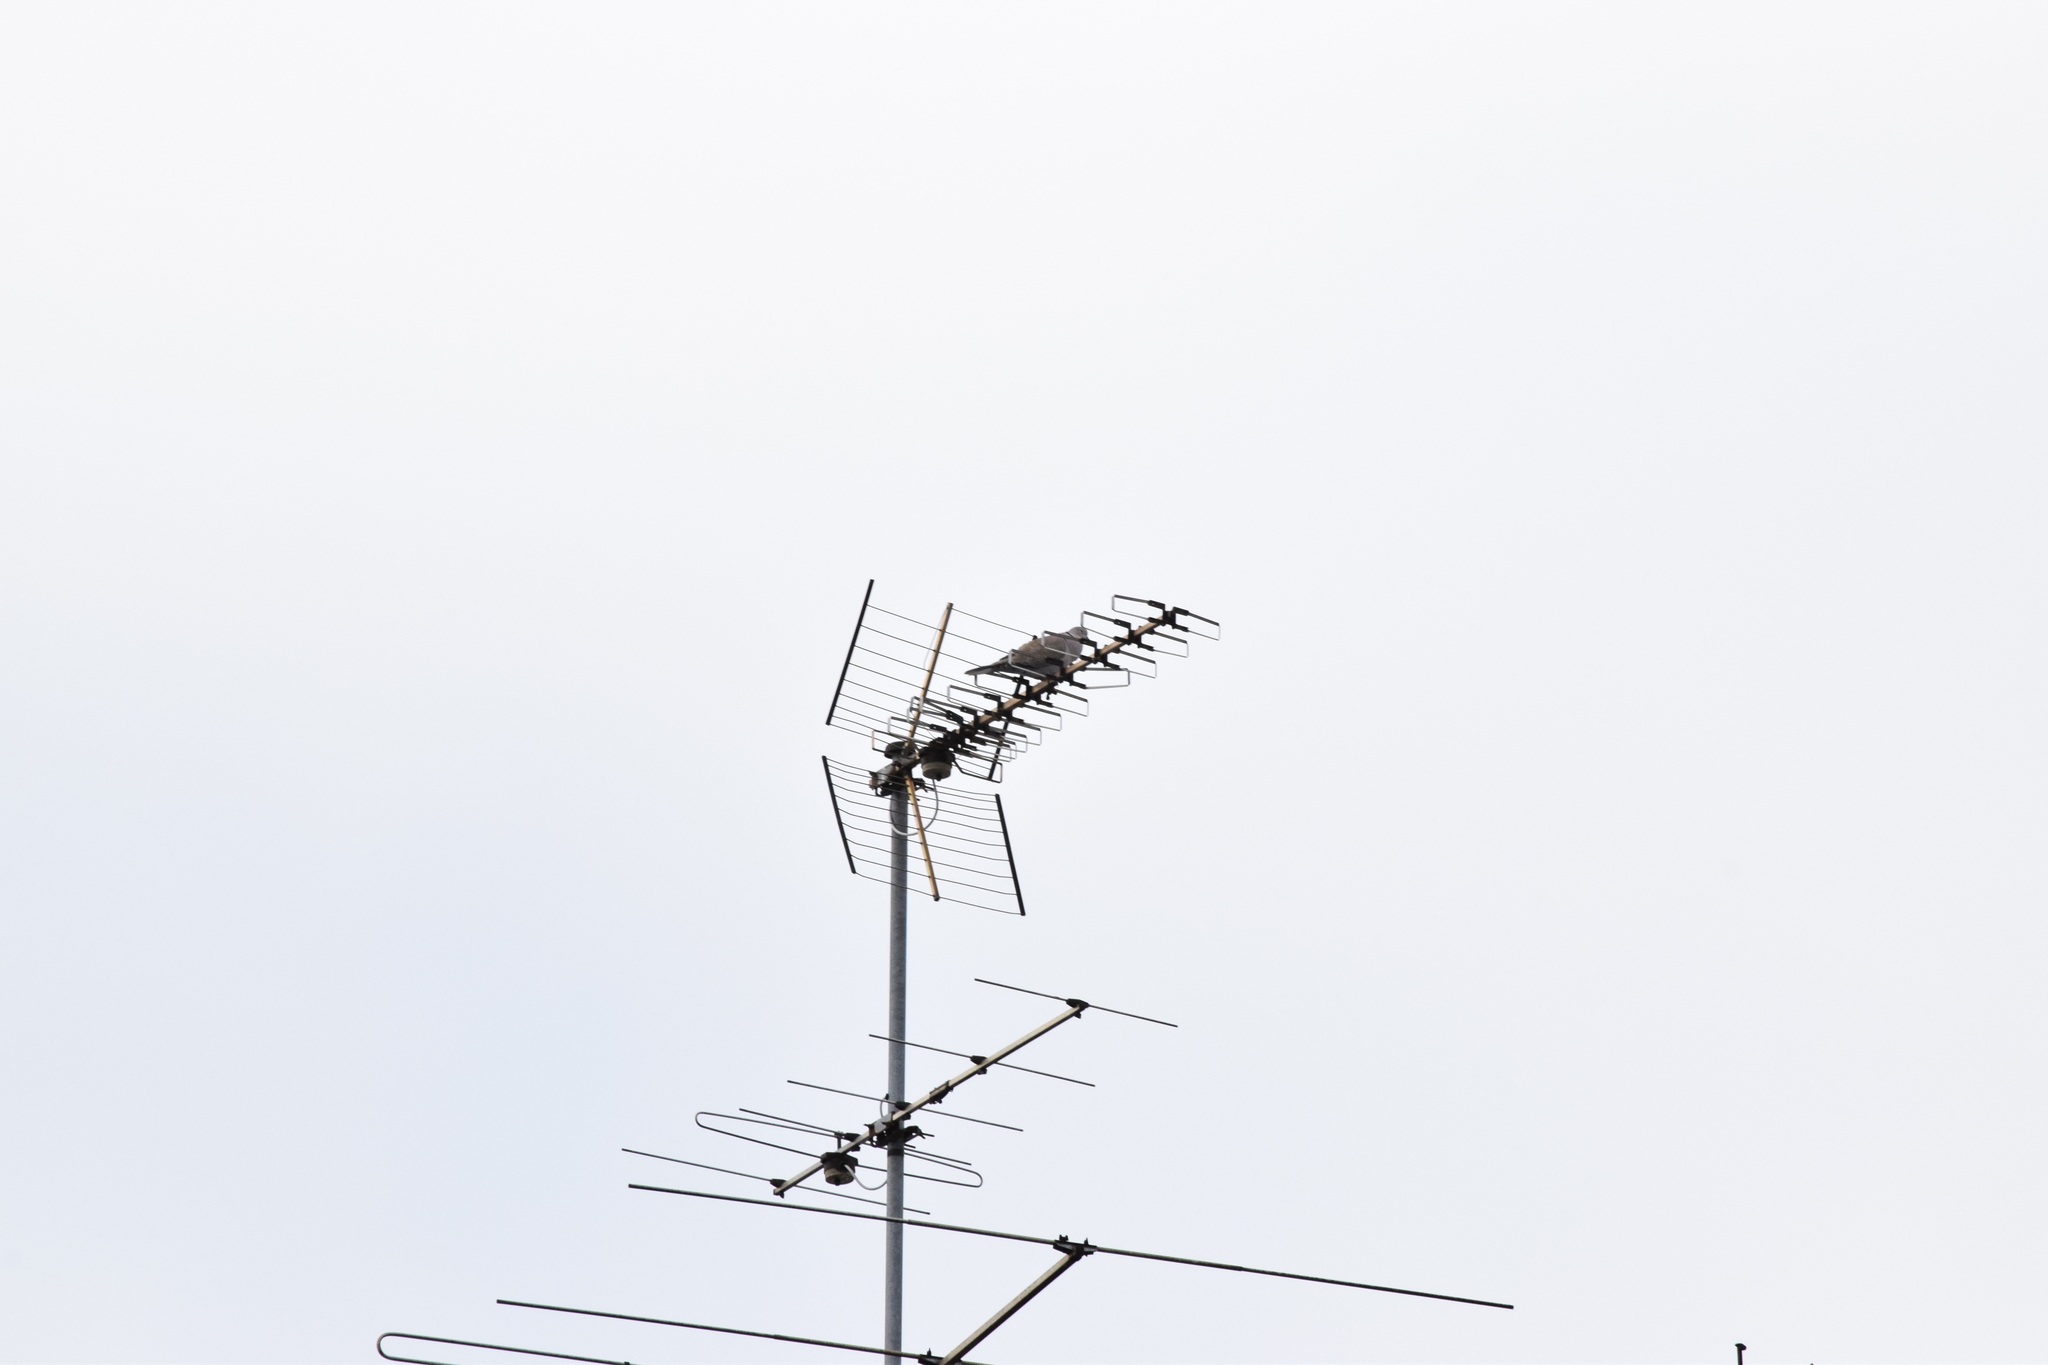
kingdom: Animalia
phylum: Chordata
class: Aves
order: Columbiformes
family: Columbidae
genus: Streptopelia
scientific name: Streptopelia decaocto
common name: Eurasian collared dove
